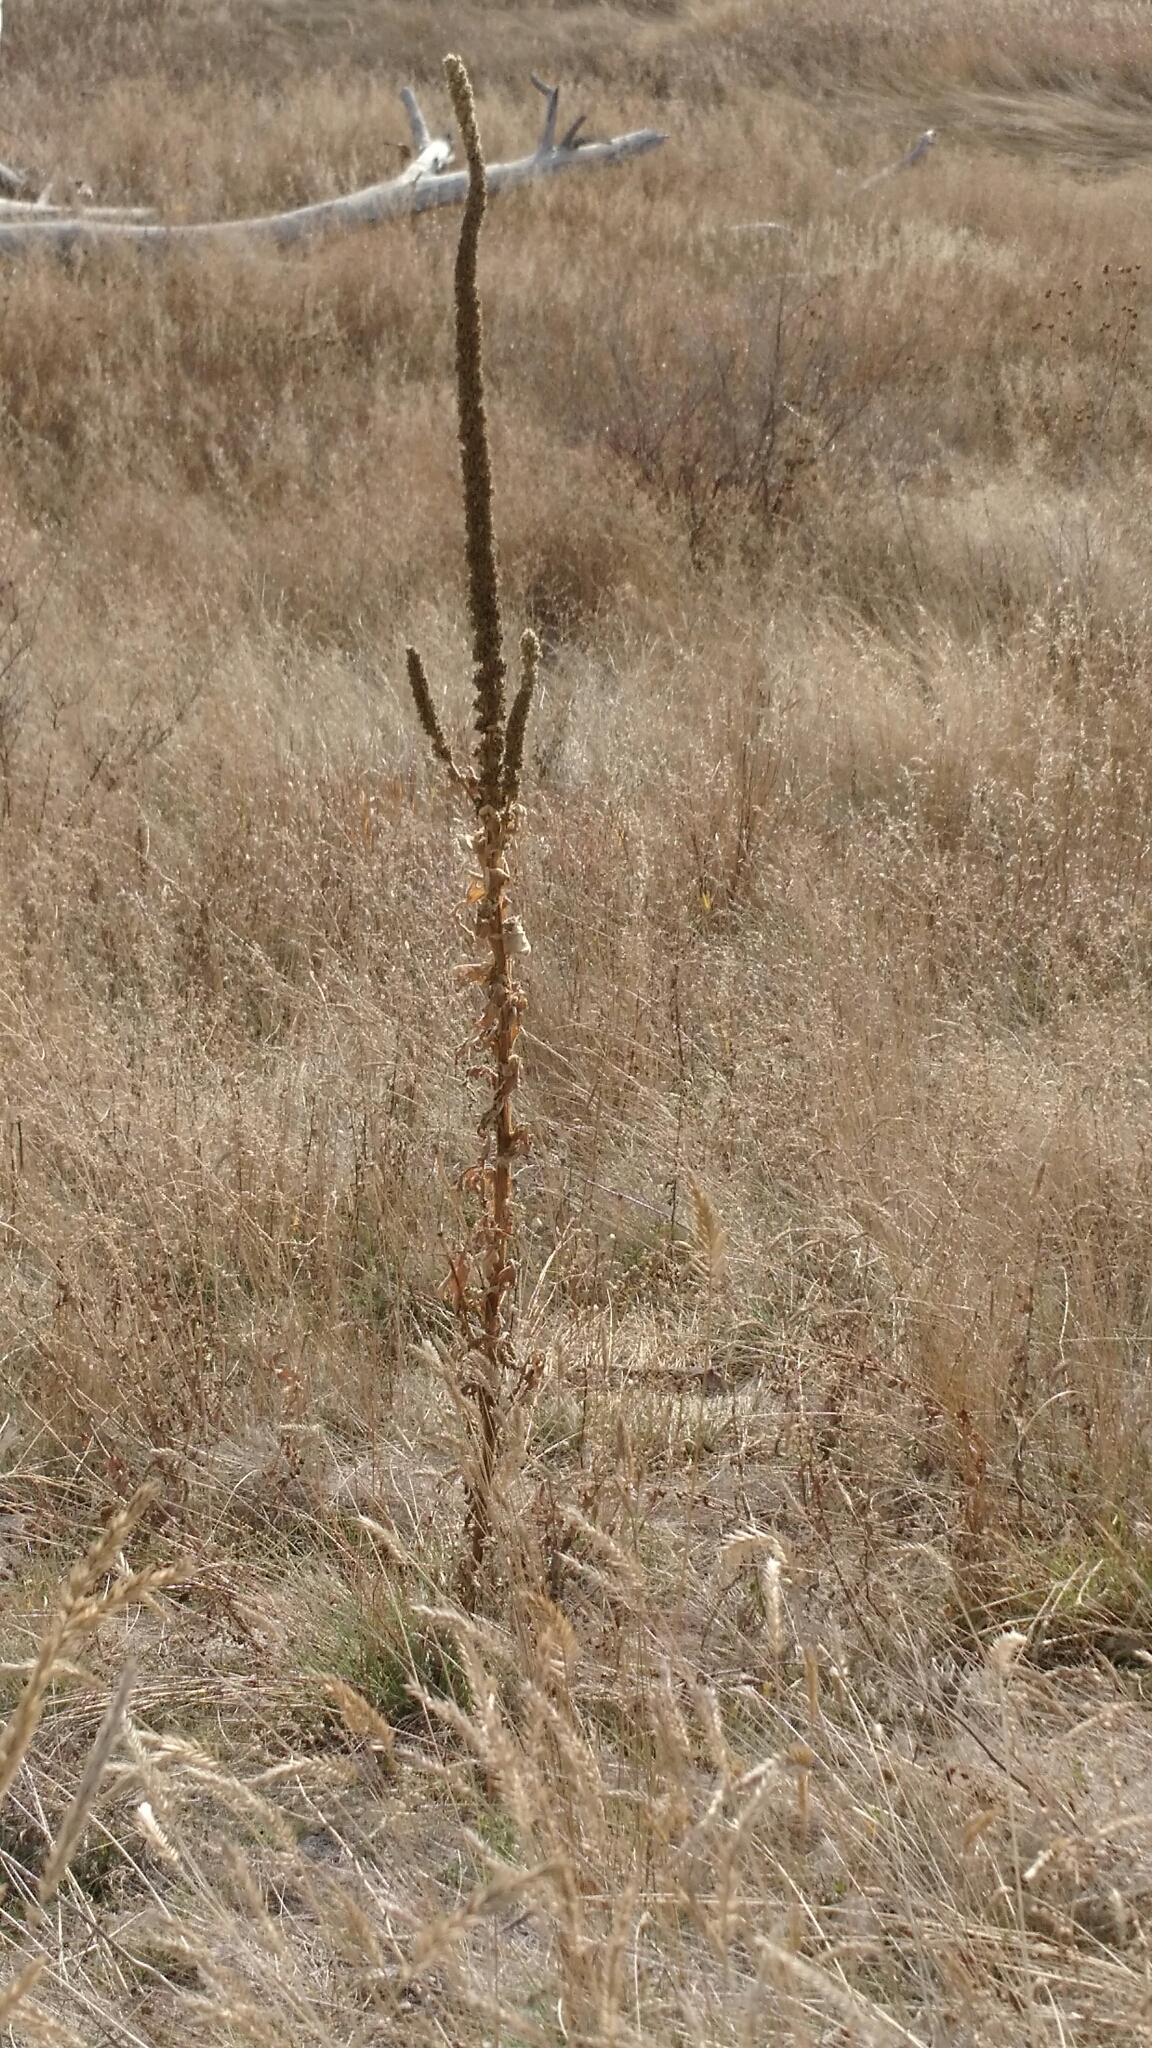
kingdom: Plantae
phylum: Tracheophyta
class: Magnoliopsida
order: Lamiales
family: Scrophulariaceae
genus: Verbascum
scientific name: Verbascum thapsus
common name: Common mullein
